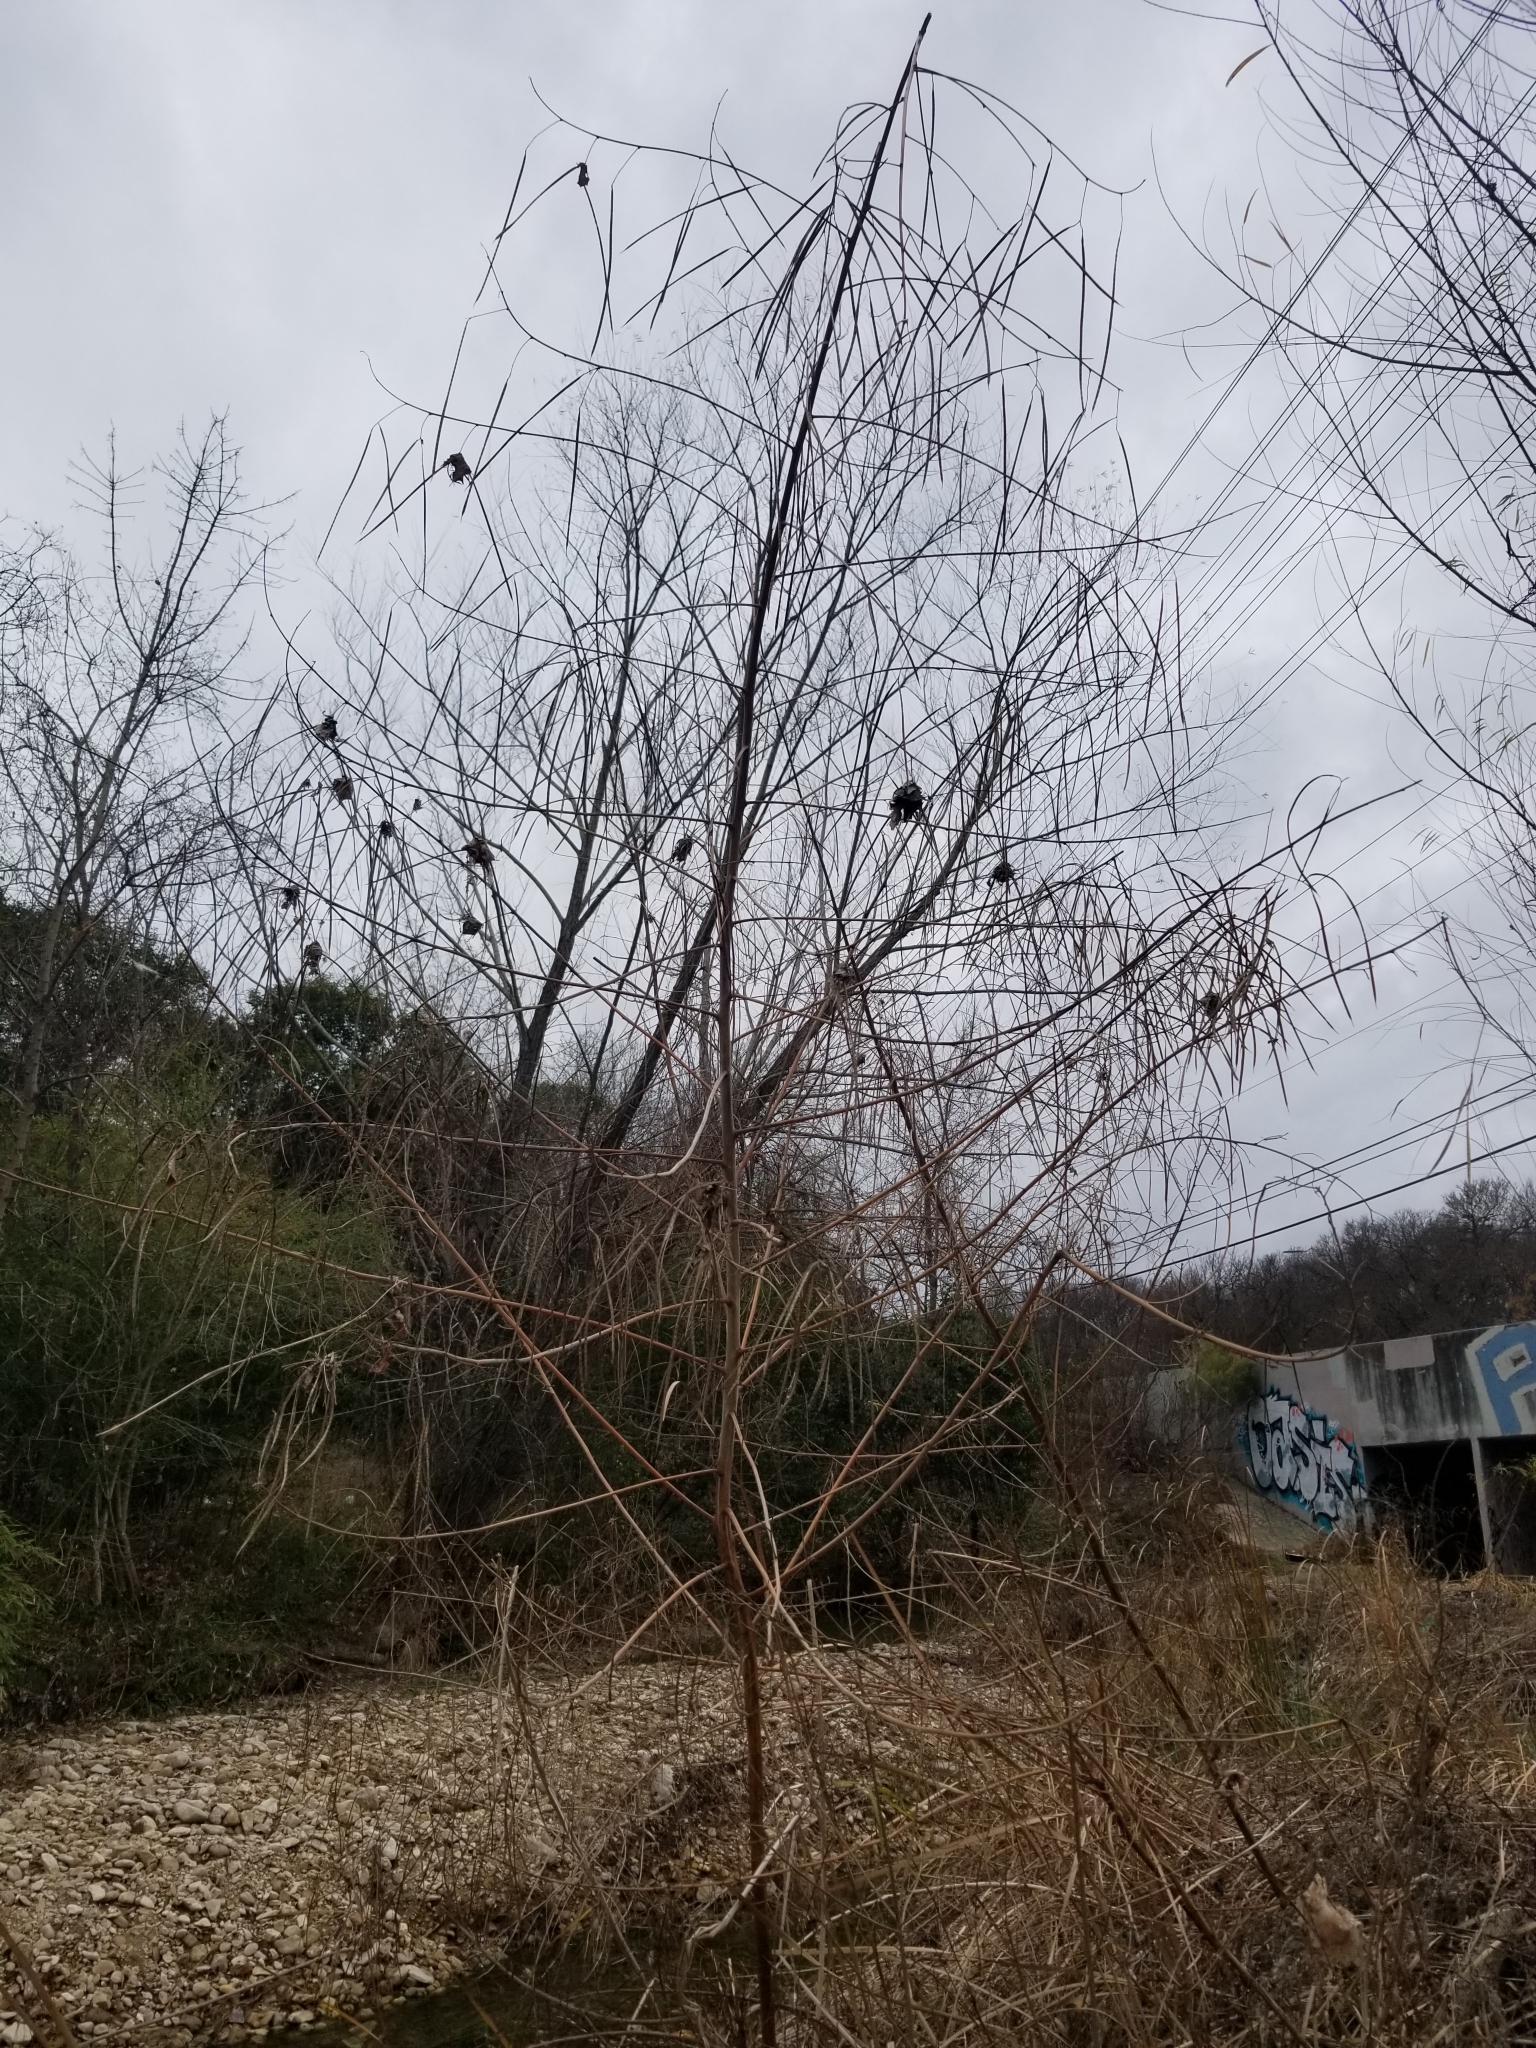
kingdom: Plantae
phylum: Tracheophyta
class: Magnoliopsida
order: Fabales
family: Fabaceae
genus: Sesbania
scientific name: Sesbania herbacea
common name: Bigpod sesbania
